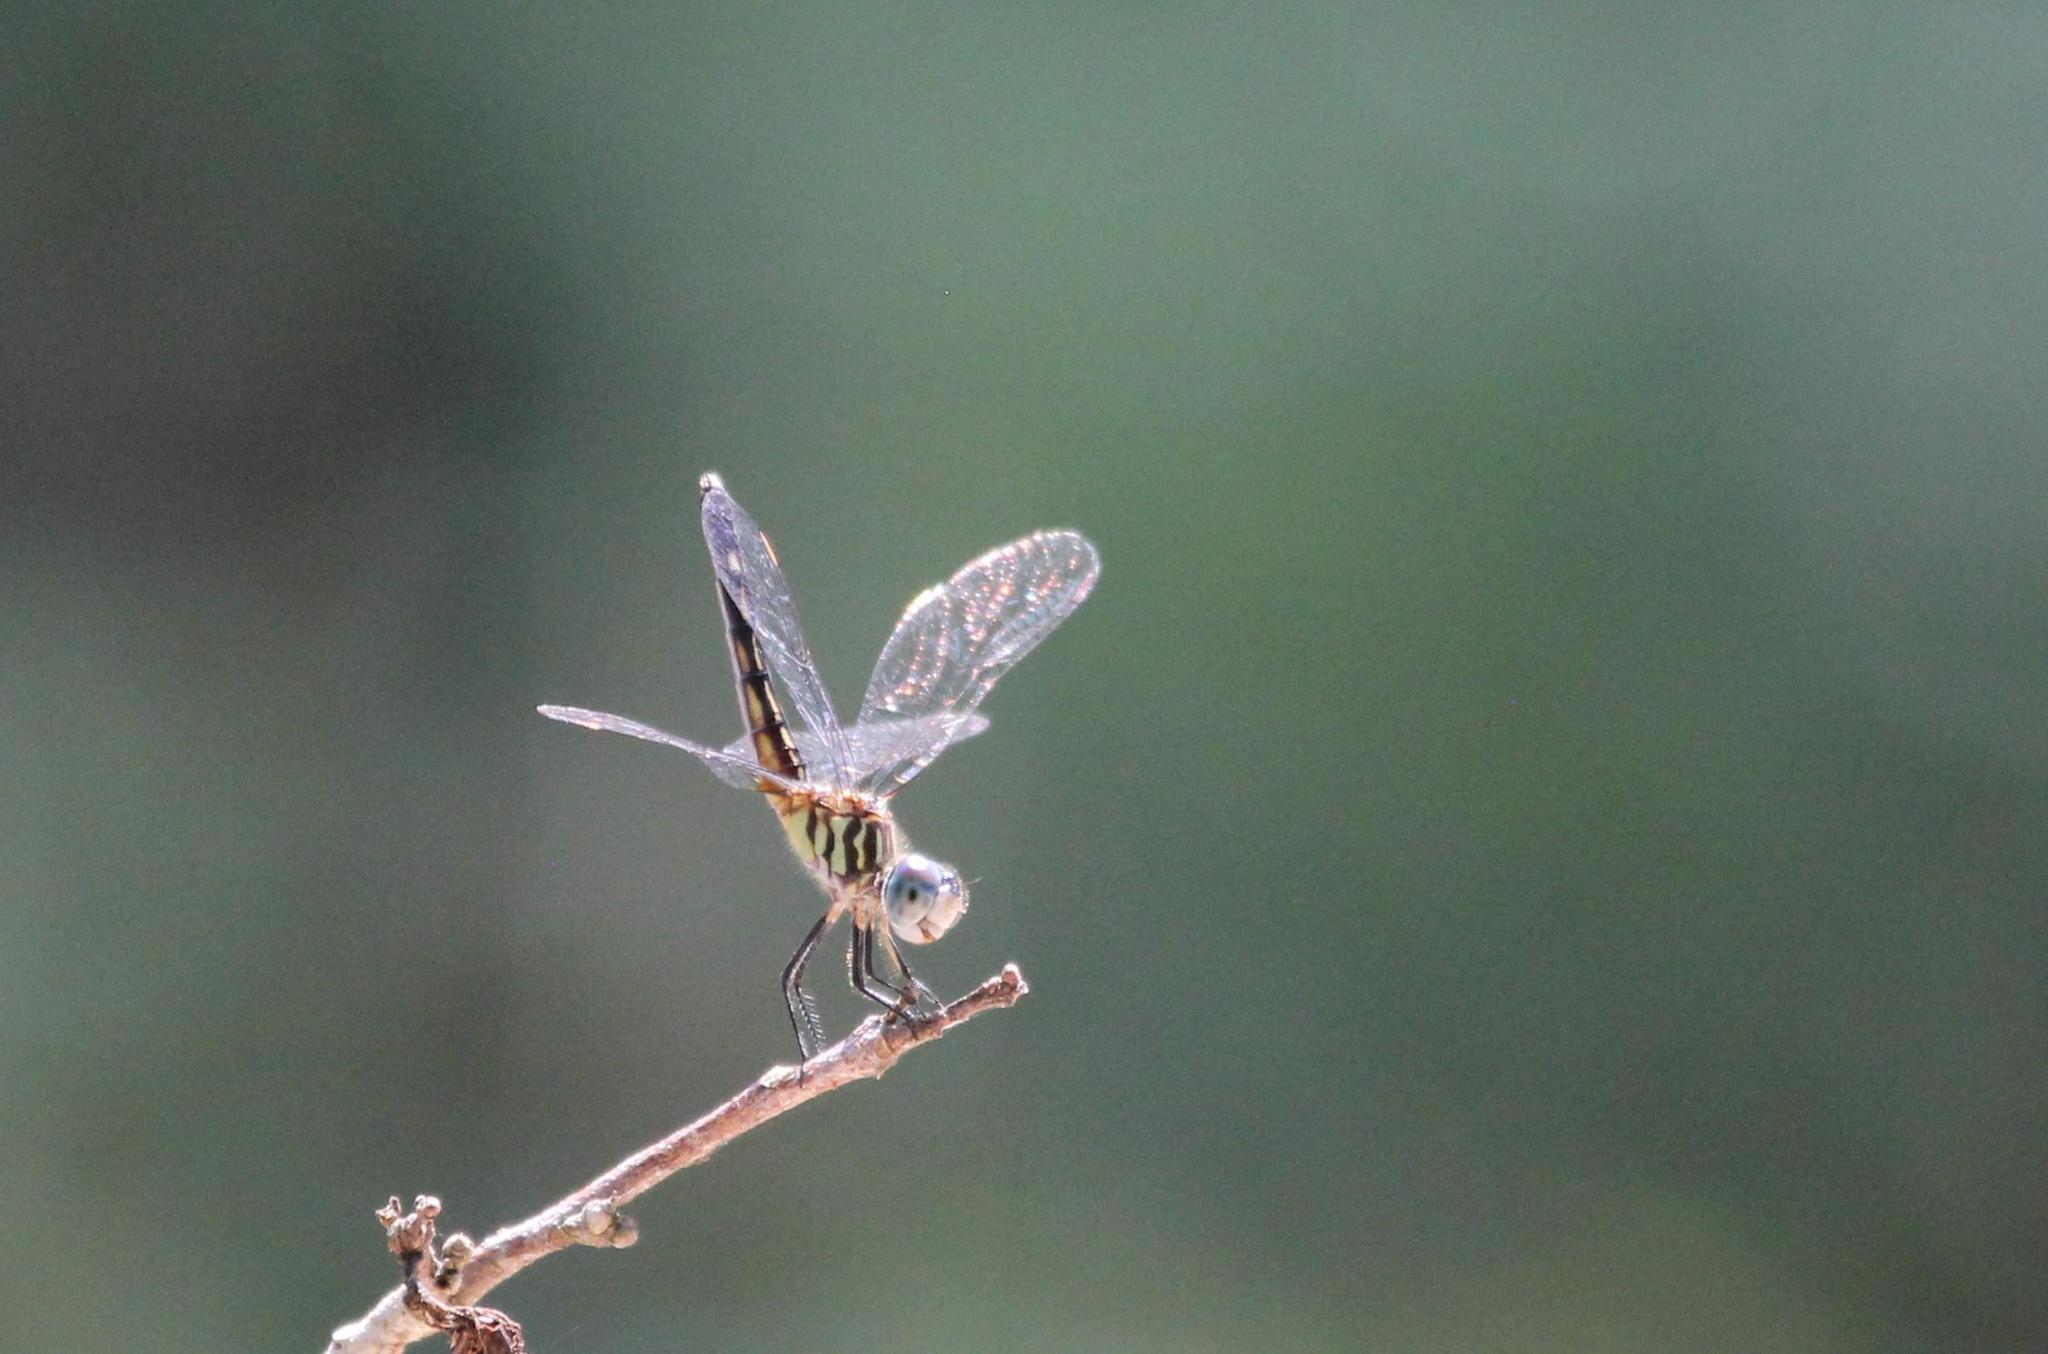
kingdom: Animalia
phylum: Arthropoda
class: Insecta
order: Odonata
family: Libellulidae
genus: Pachydiplax
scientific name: Pachydiplax longipennis
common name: Blue dasher
